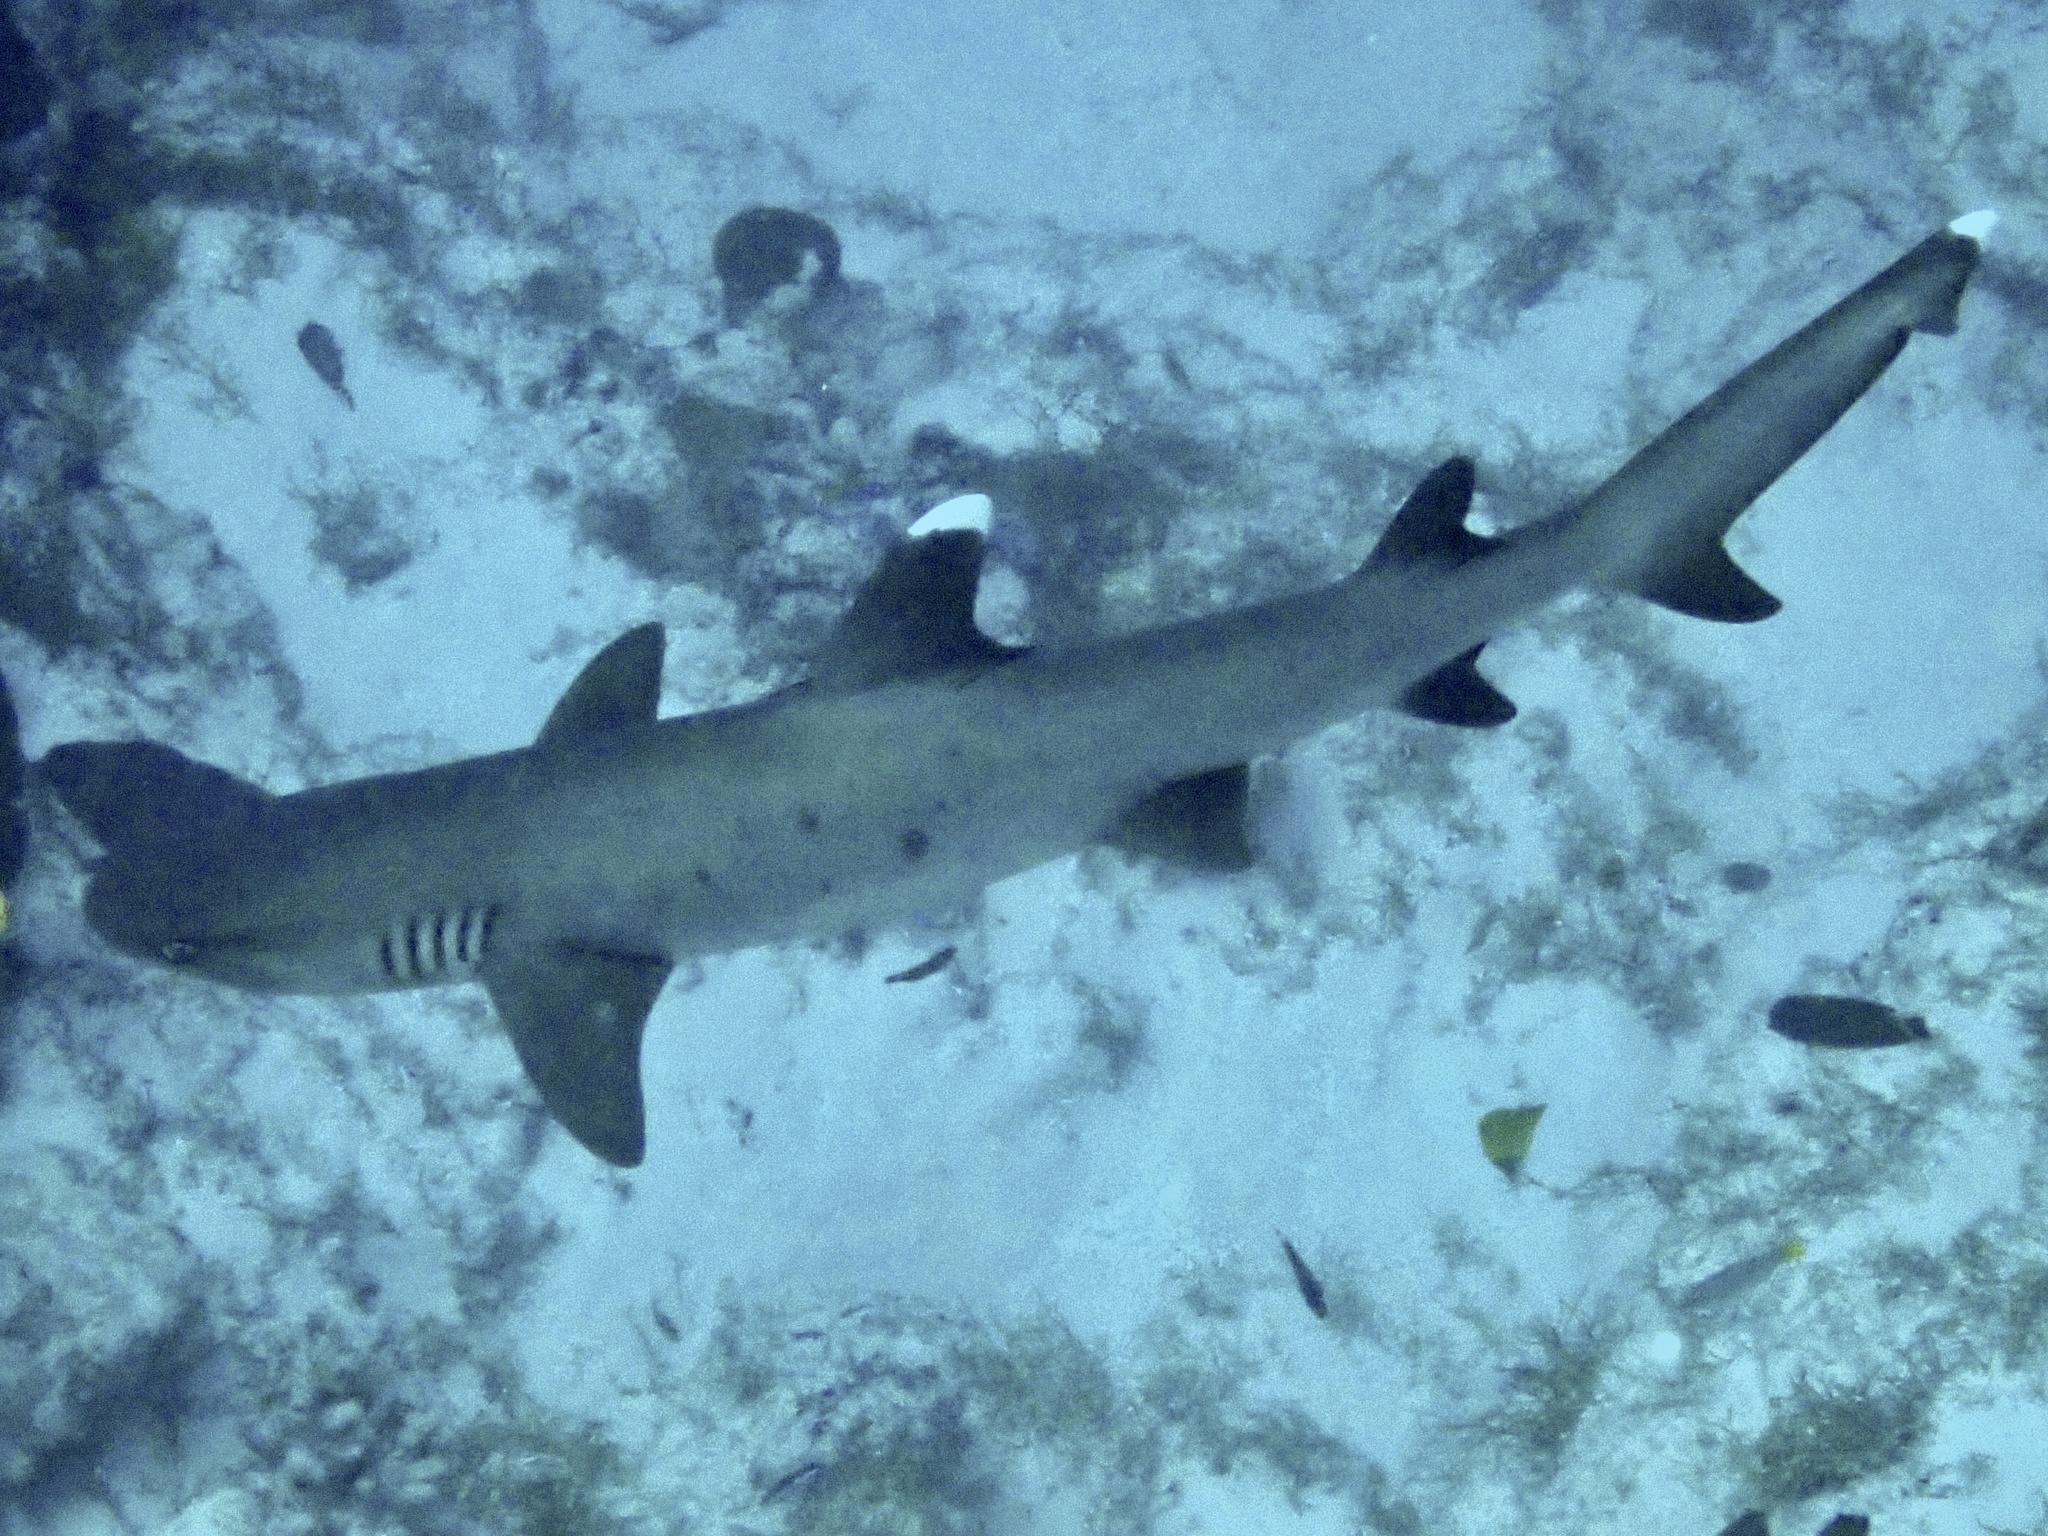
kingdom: Animalia
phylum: Chordata
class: Elasmobranchii
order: Carcharhiniformes
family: Carcharhinidae
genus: Triaenodon
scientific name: Triaenodon obesus
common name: Whitetip reef shark
